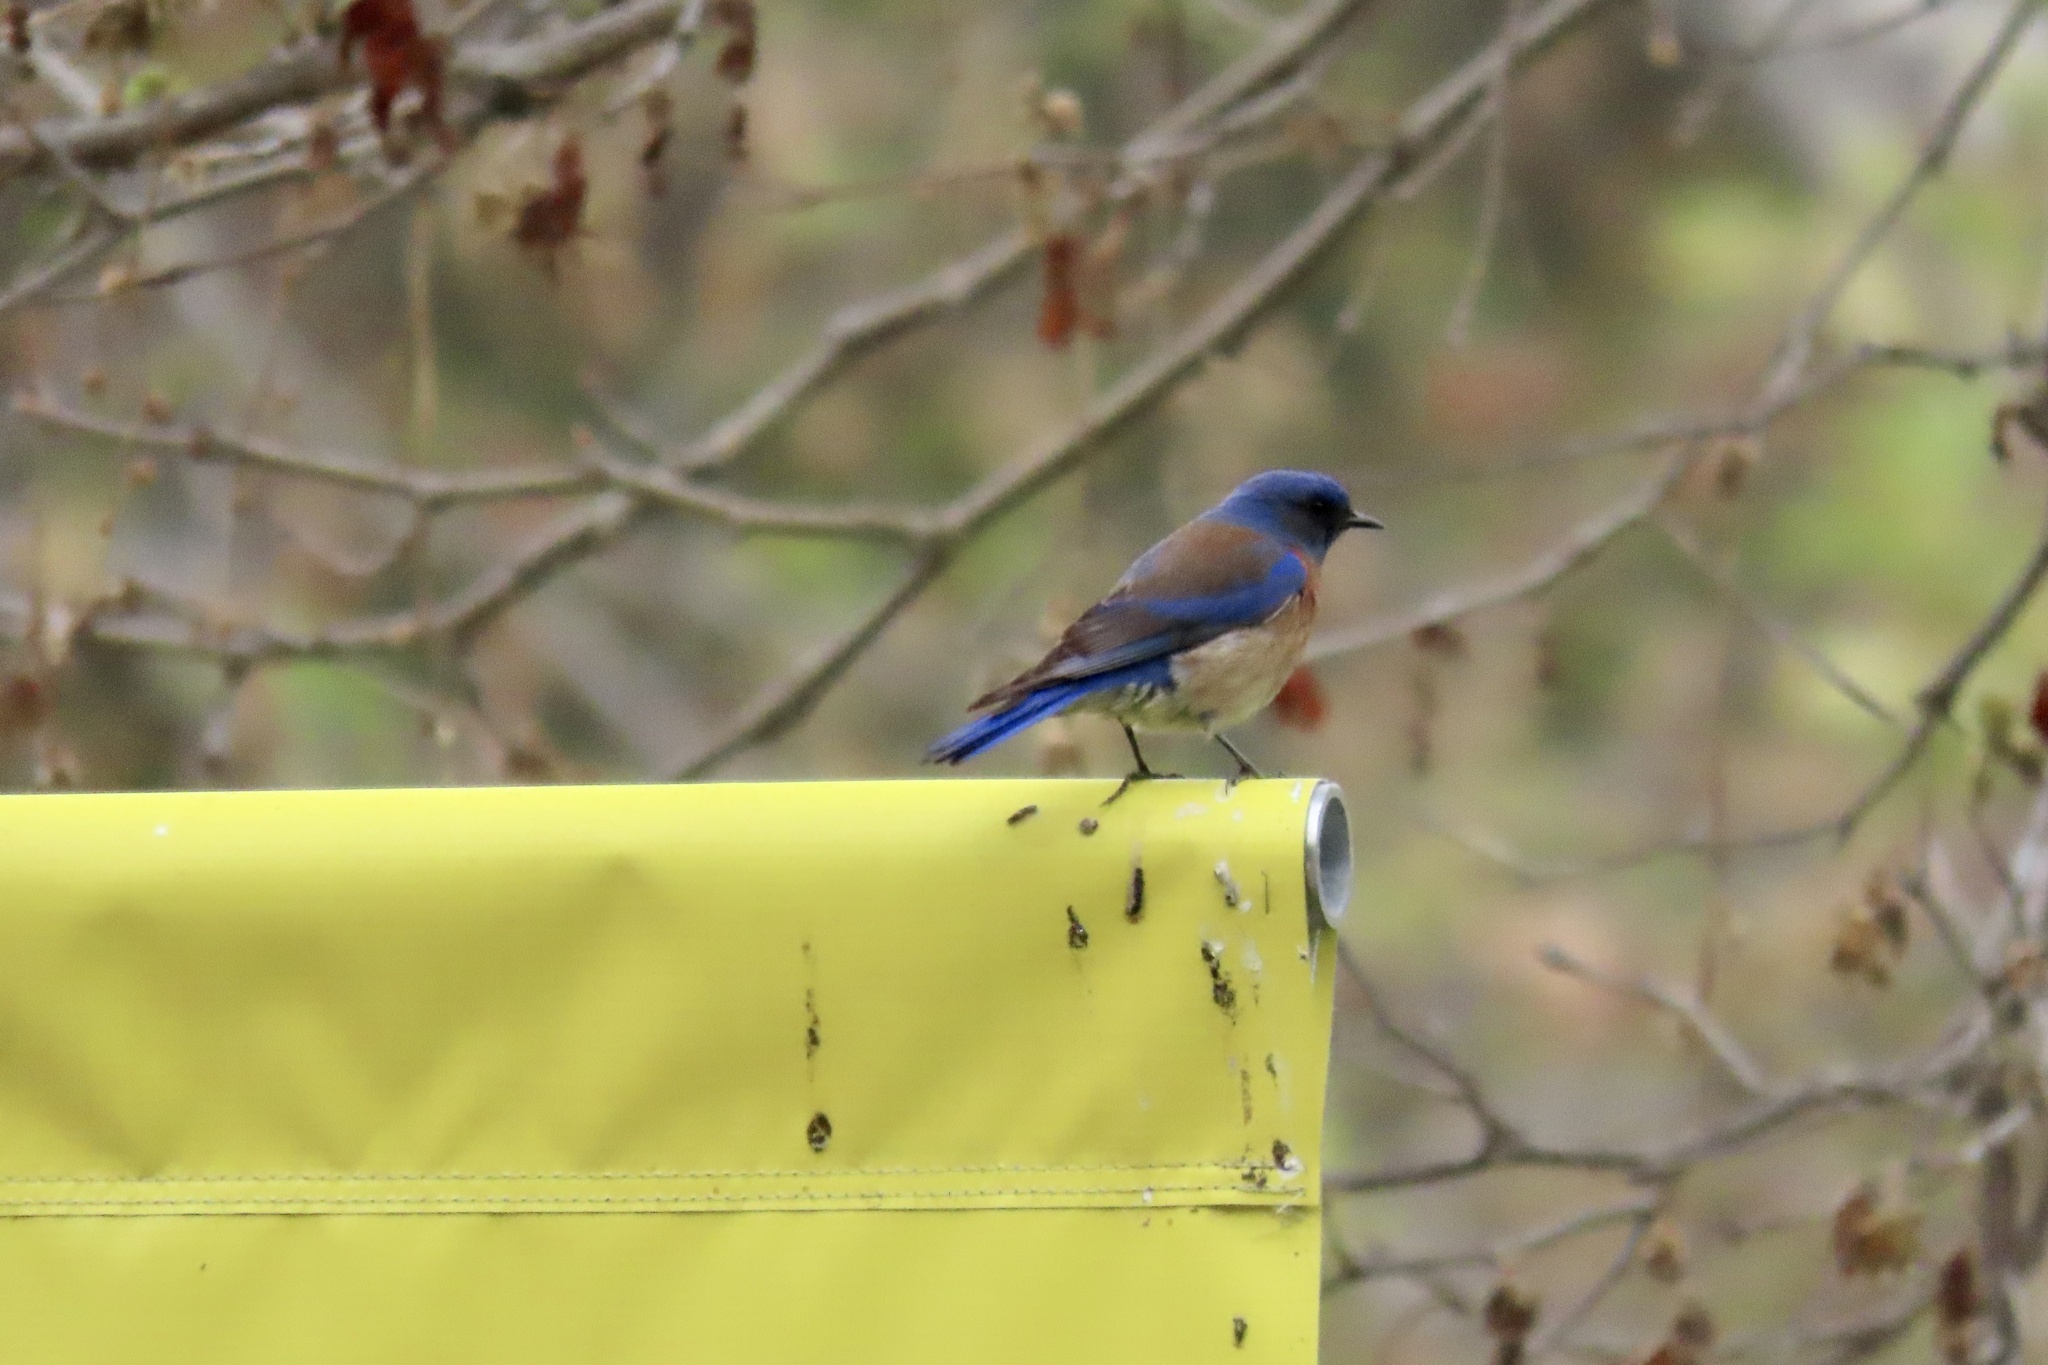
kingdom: Animalia
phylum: Chordata
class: Aves
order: Passeriformes
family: Turdidae
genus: Sialia
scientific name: Sialia mexicana
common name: Western bluebird
